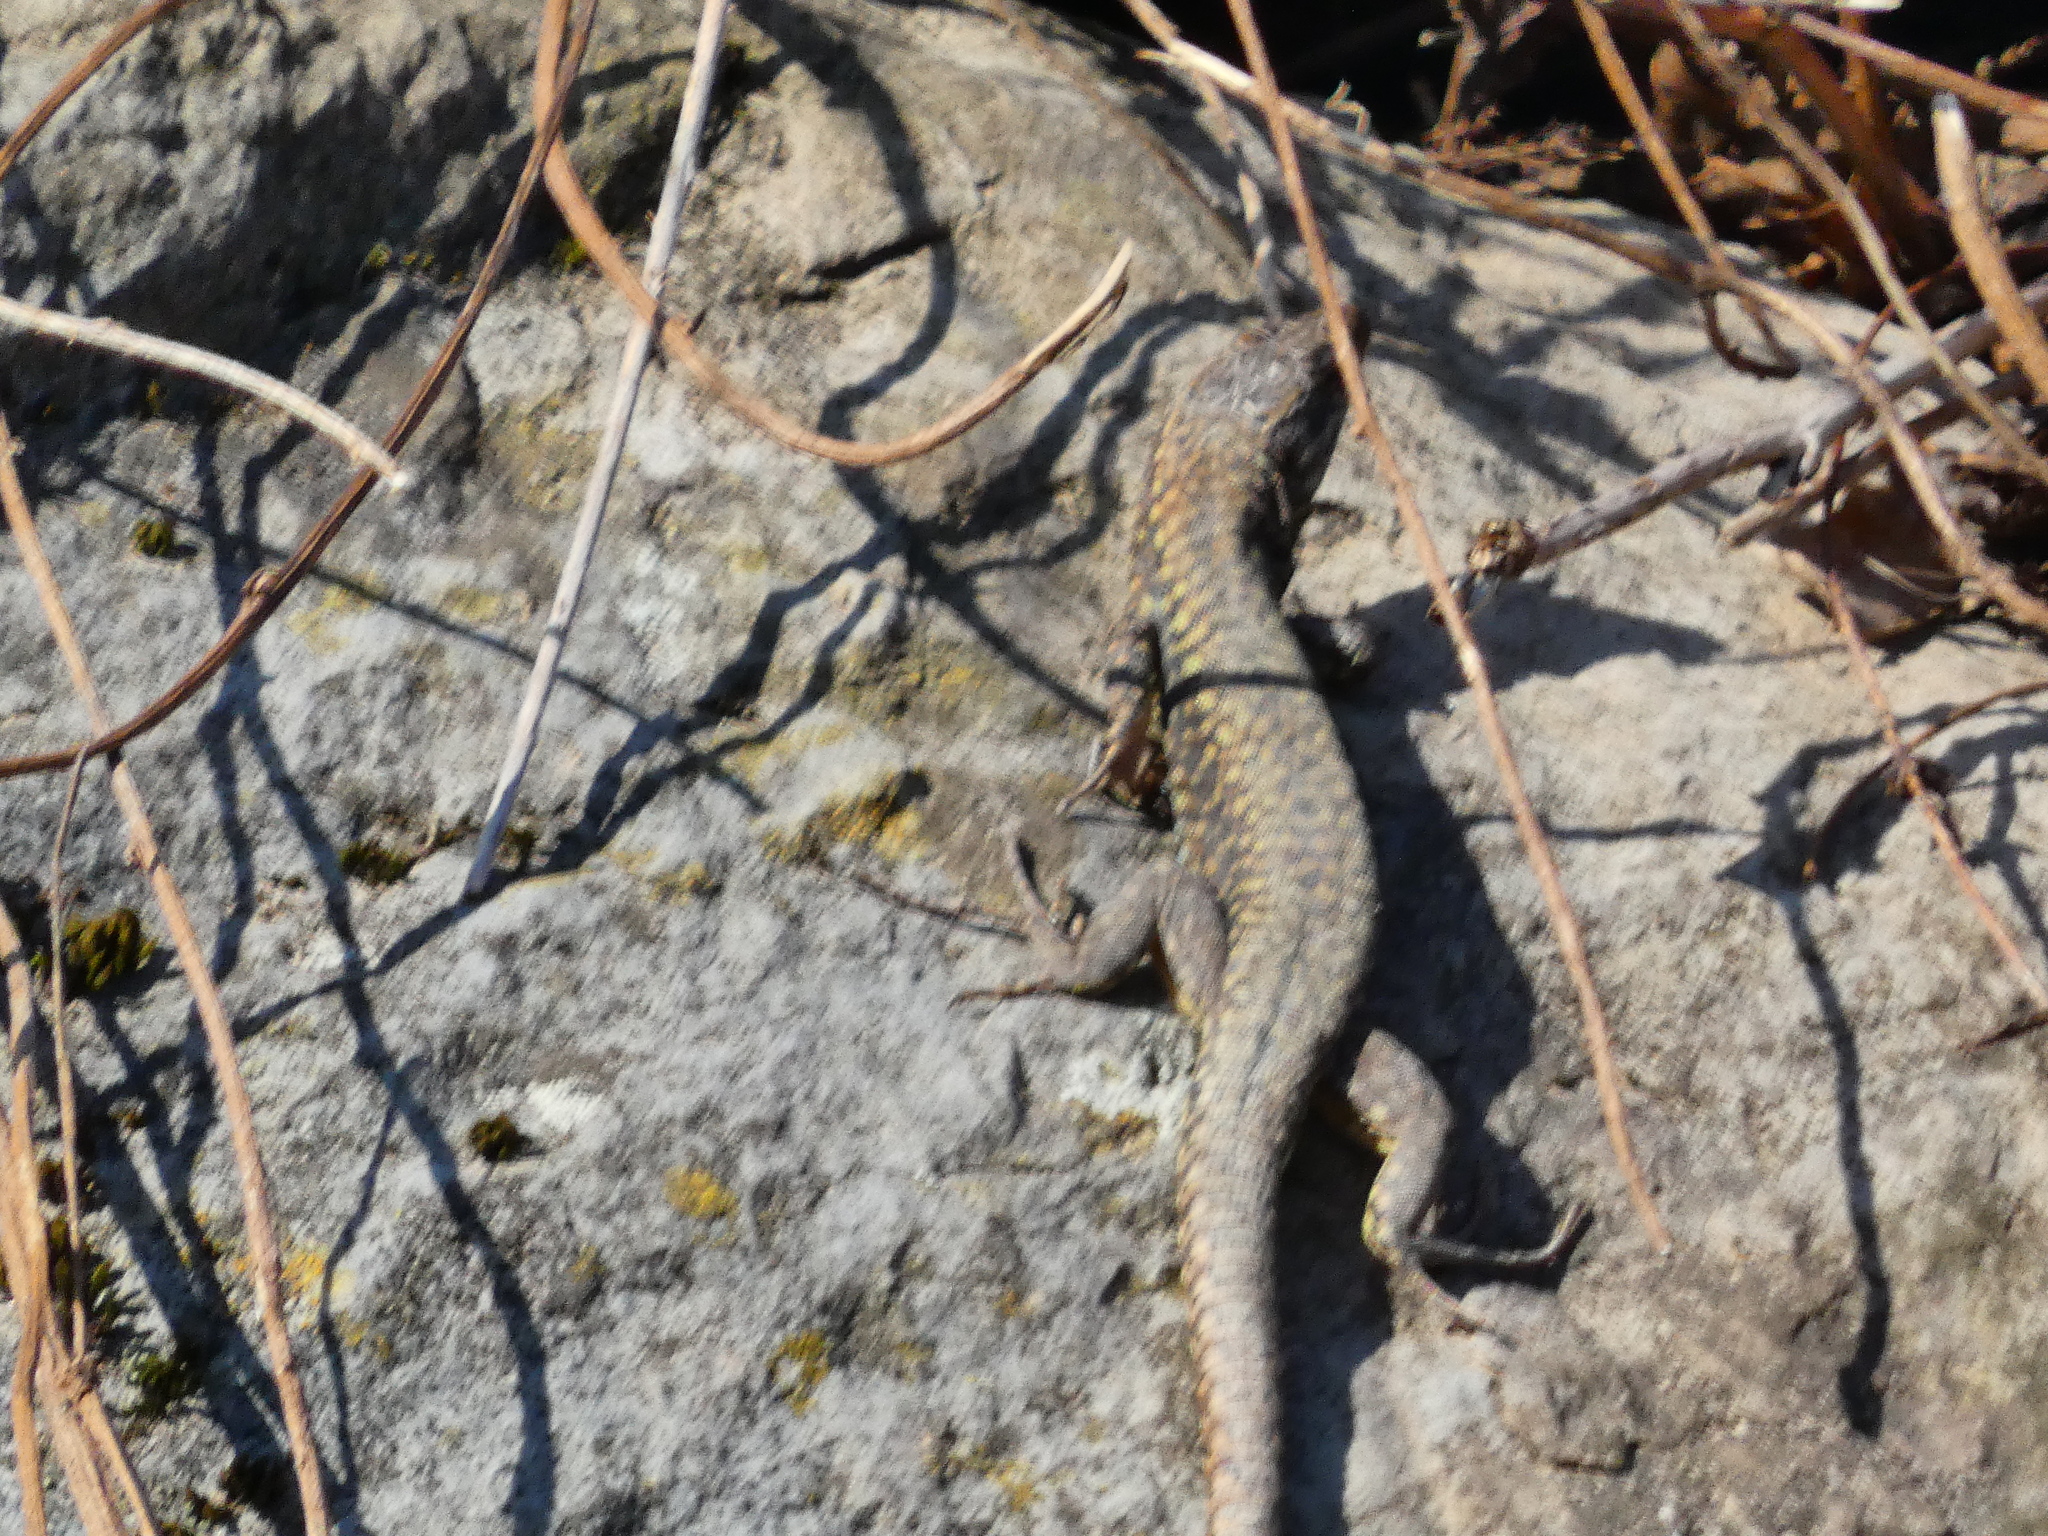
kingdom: Animalia
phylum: Chordata
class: Squamata
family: Lacertidae
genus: Podarcis
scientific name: Podarcis muralis
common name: Common wall lizard
